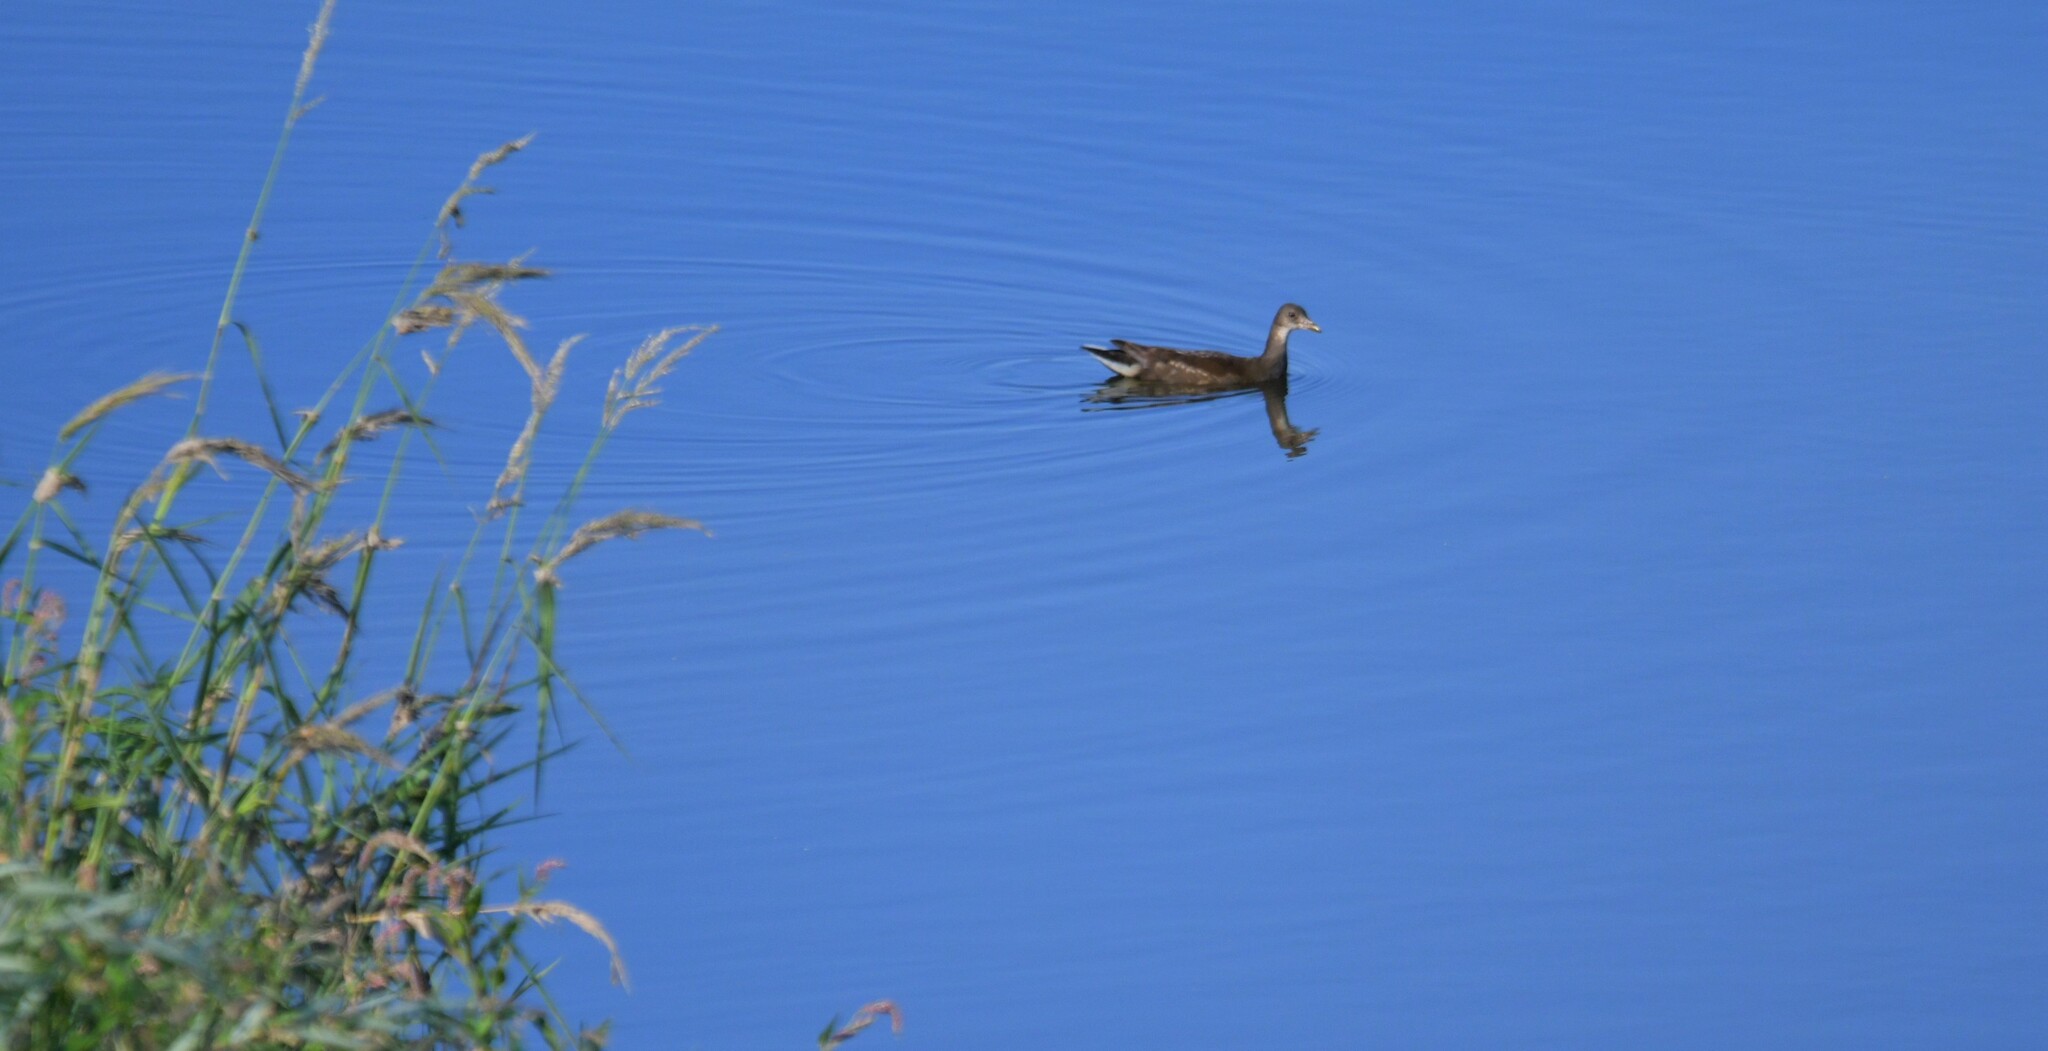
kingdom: Animalia
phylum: Chordata
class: Aves
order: Gruiformes
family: Rallidae
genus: Gallinula
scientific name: Gallinula chloropus
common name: Common moorhen
